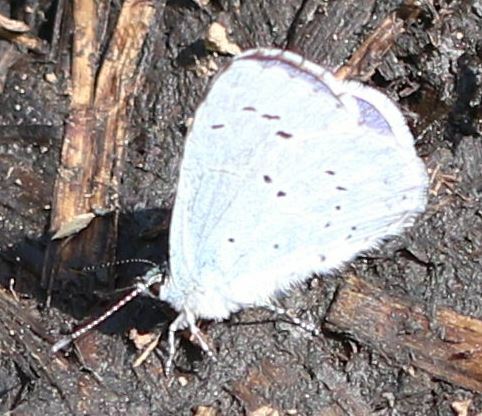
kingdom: Animalia
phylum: Arthropoda
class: Insecta
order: Lepidoptera
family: Lycaenidae
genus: Celastrina
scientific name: Celastrina argiolus
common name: Holly blue
